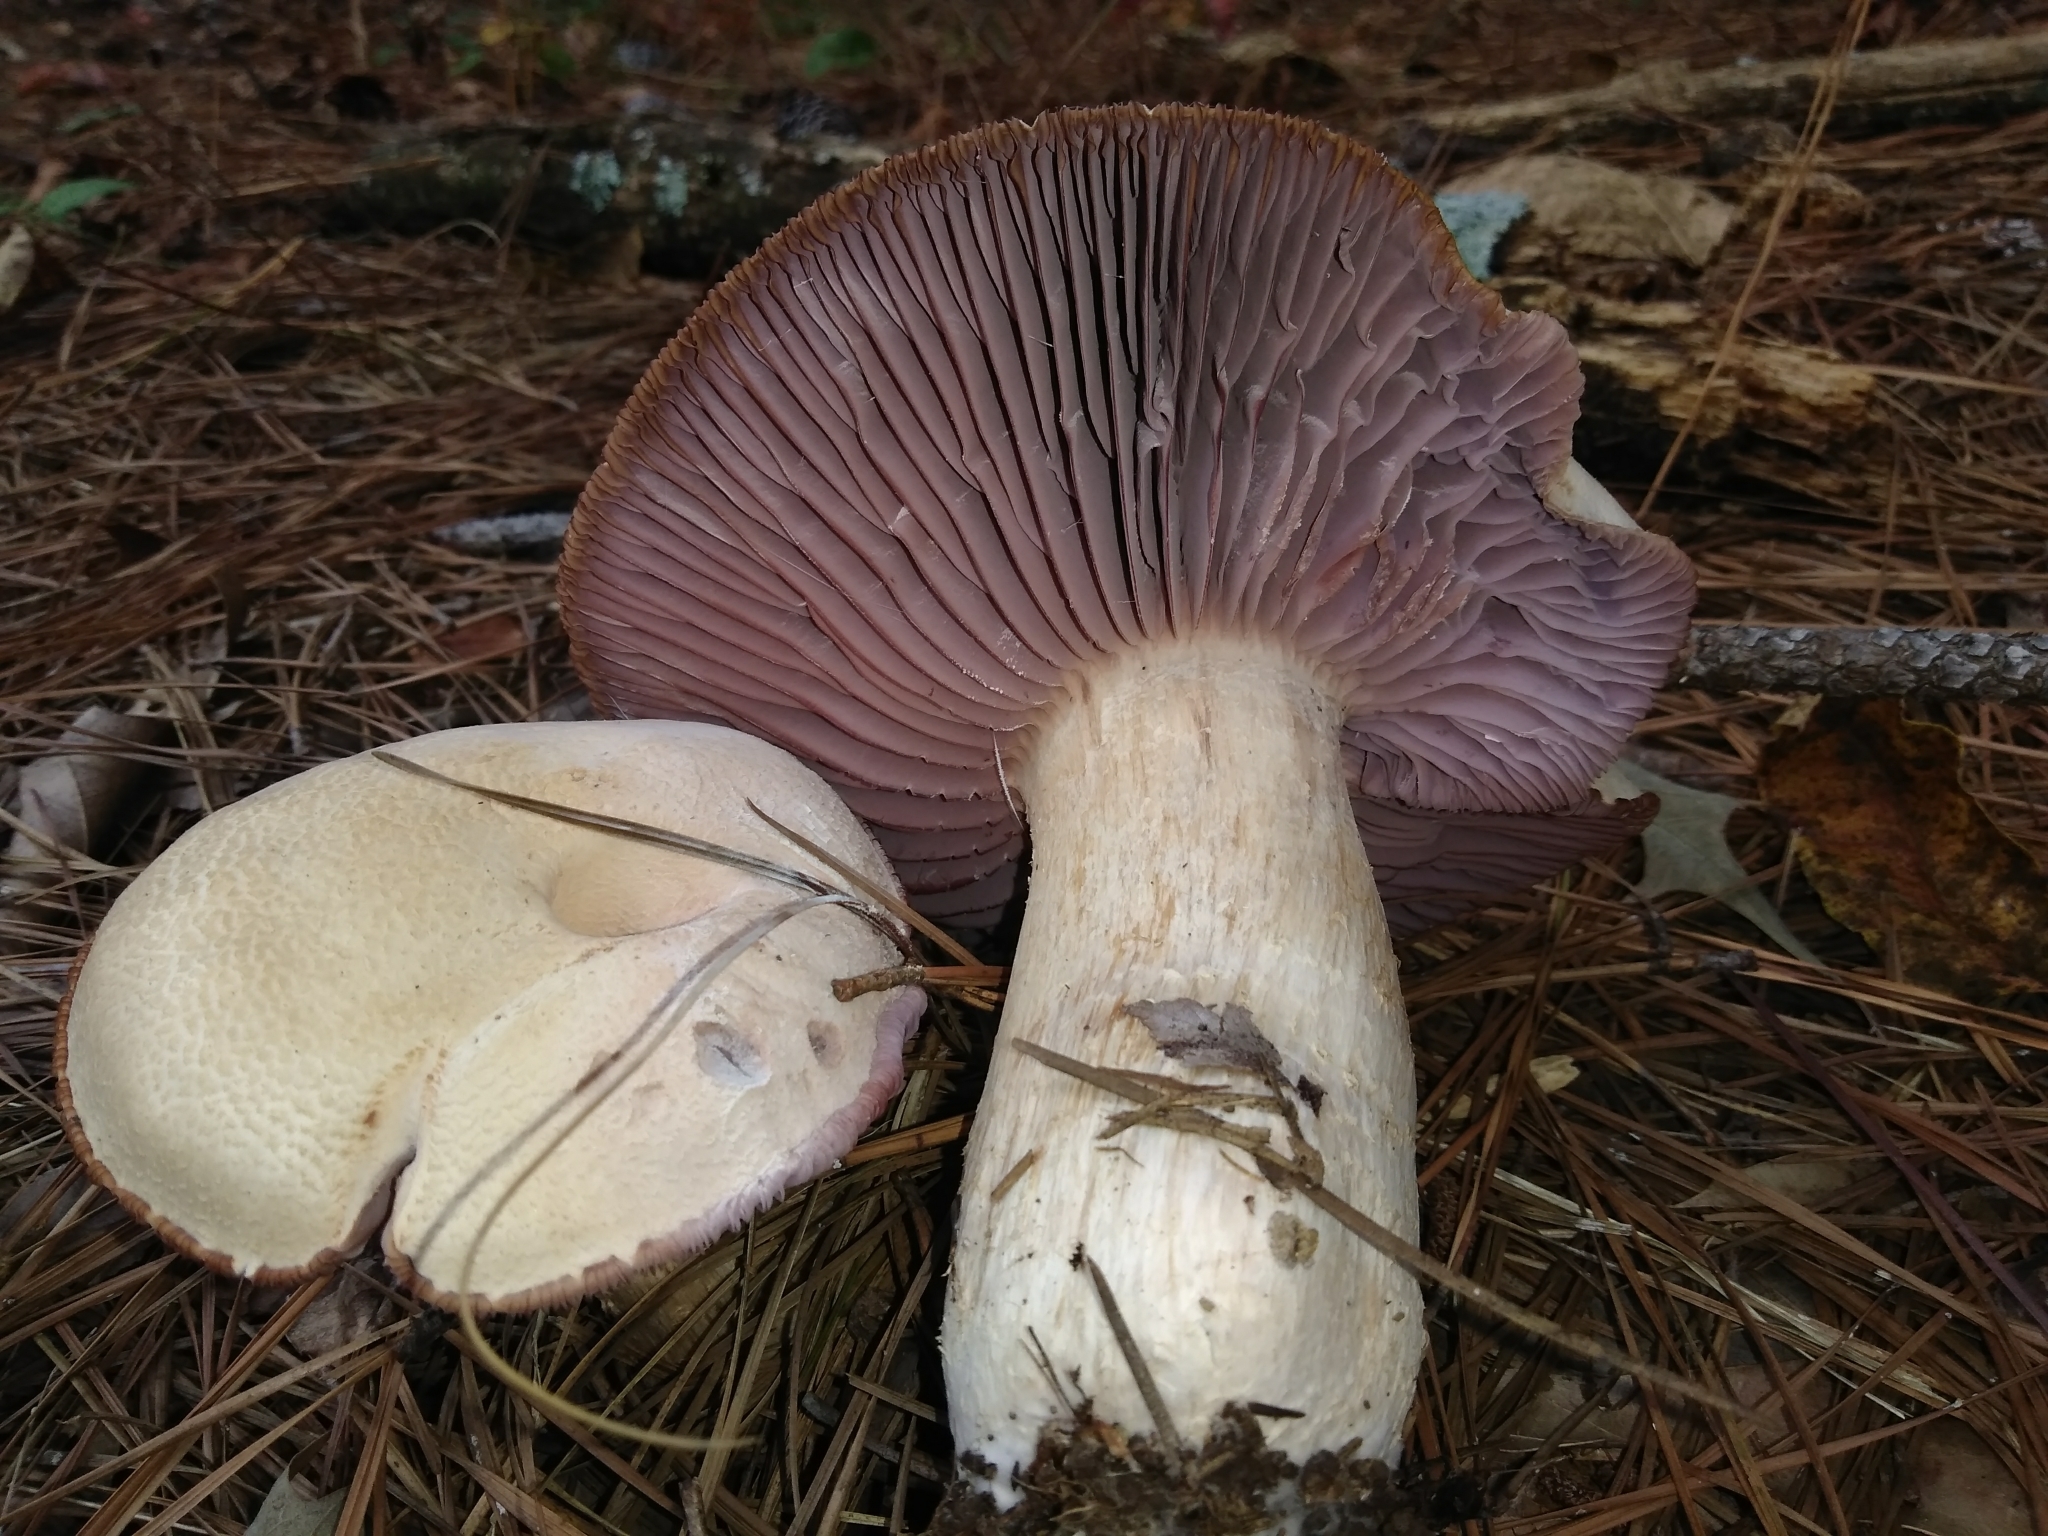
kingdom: Fungi
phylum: Basidiomycota
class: Agaricomycetes
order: Agaricales
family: Hydnangiaceae
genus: Laccaria
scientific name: Laccaria ochropurpurea
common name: Purple laccaria
